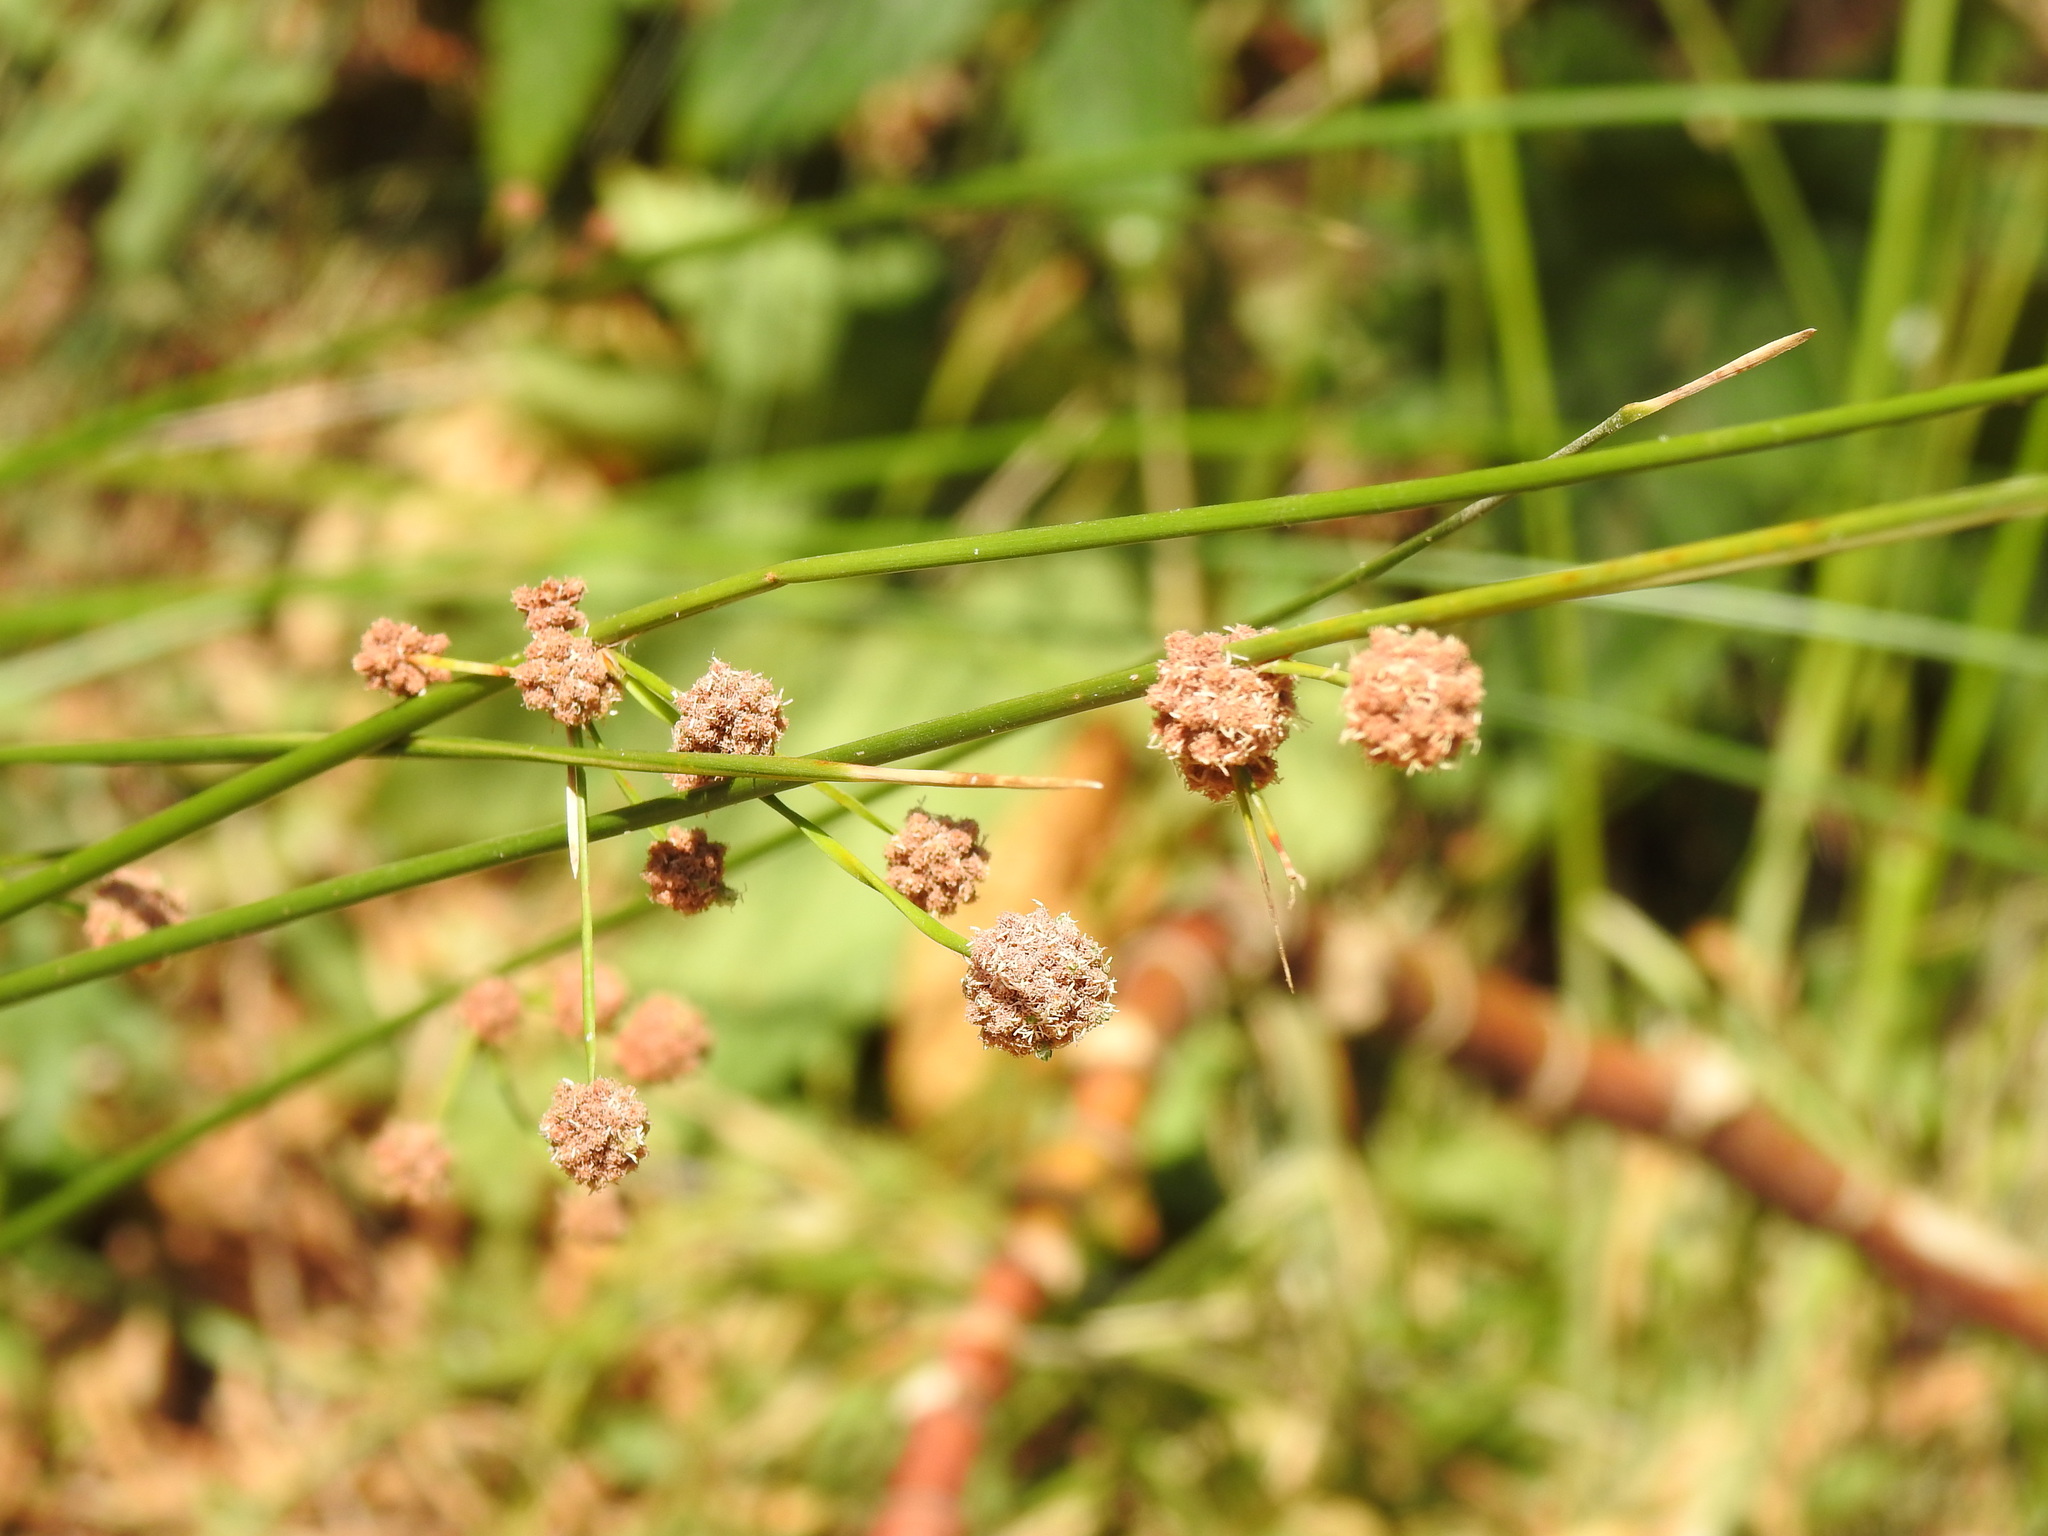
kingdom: Plantae
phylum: Tracheophyta
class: Liliopsida
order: Poales
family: Cyperaceae
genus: Scirpoides
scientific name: Scirpoides holoschoenus
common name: Round-headed club-rush
